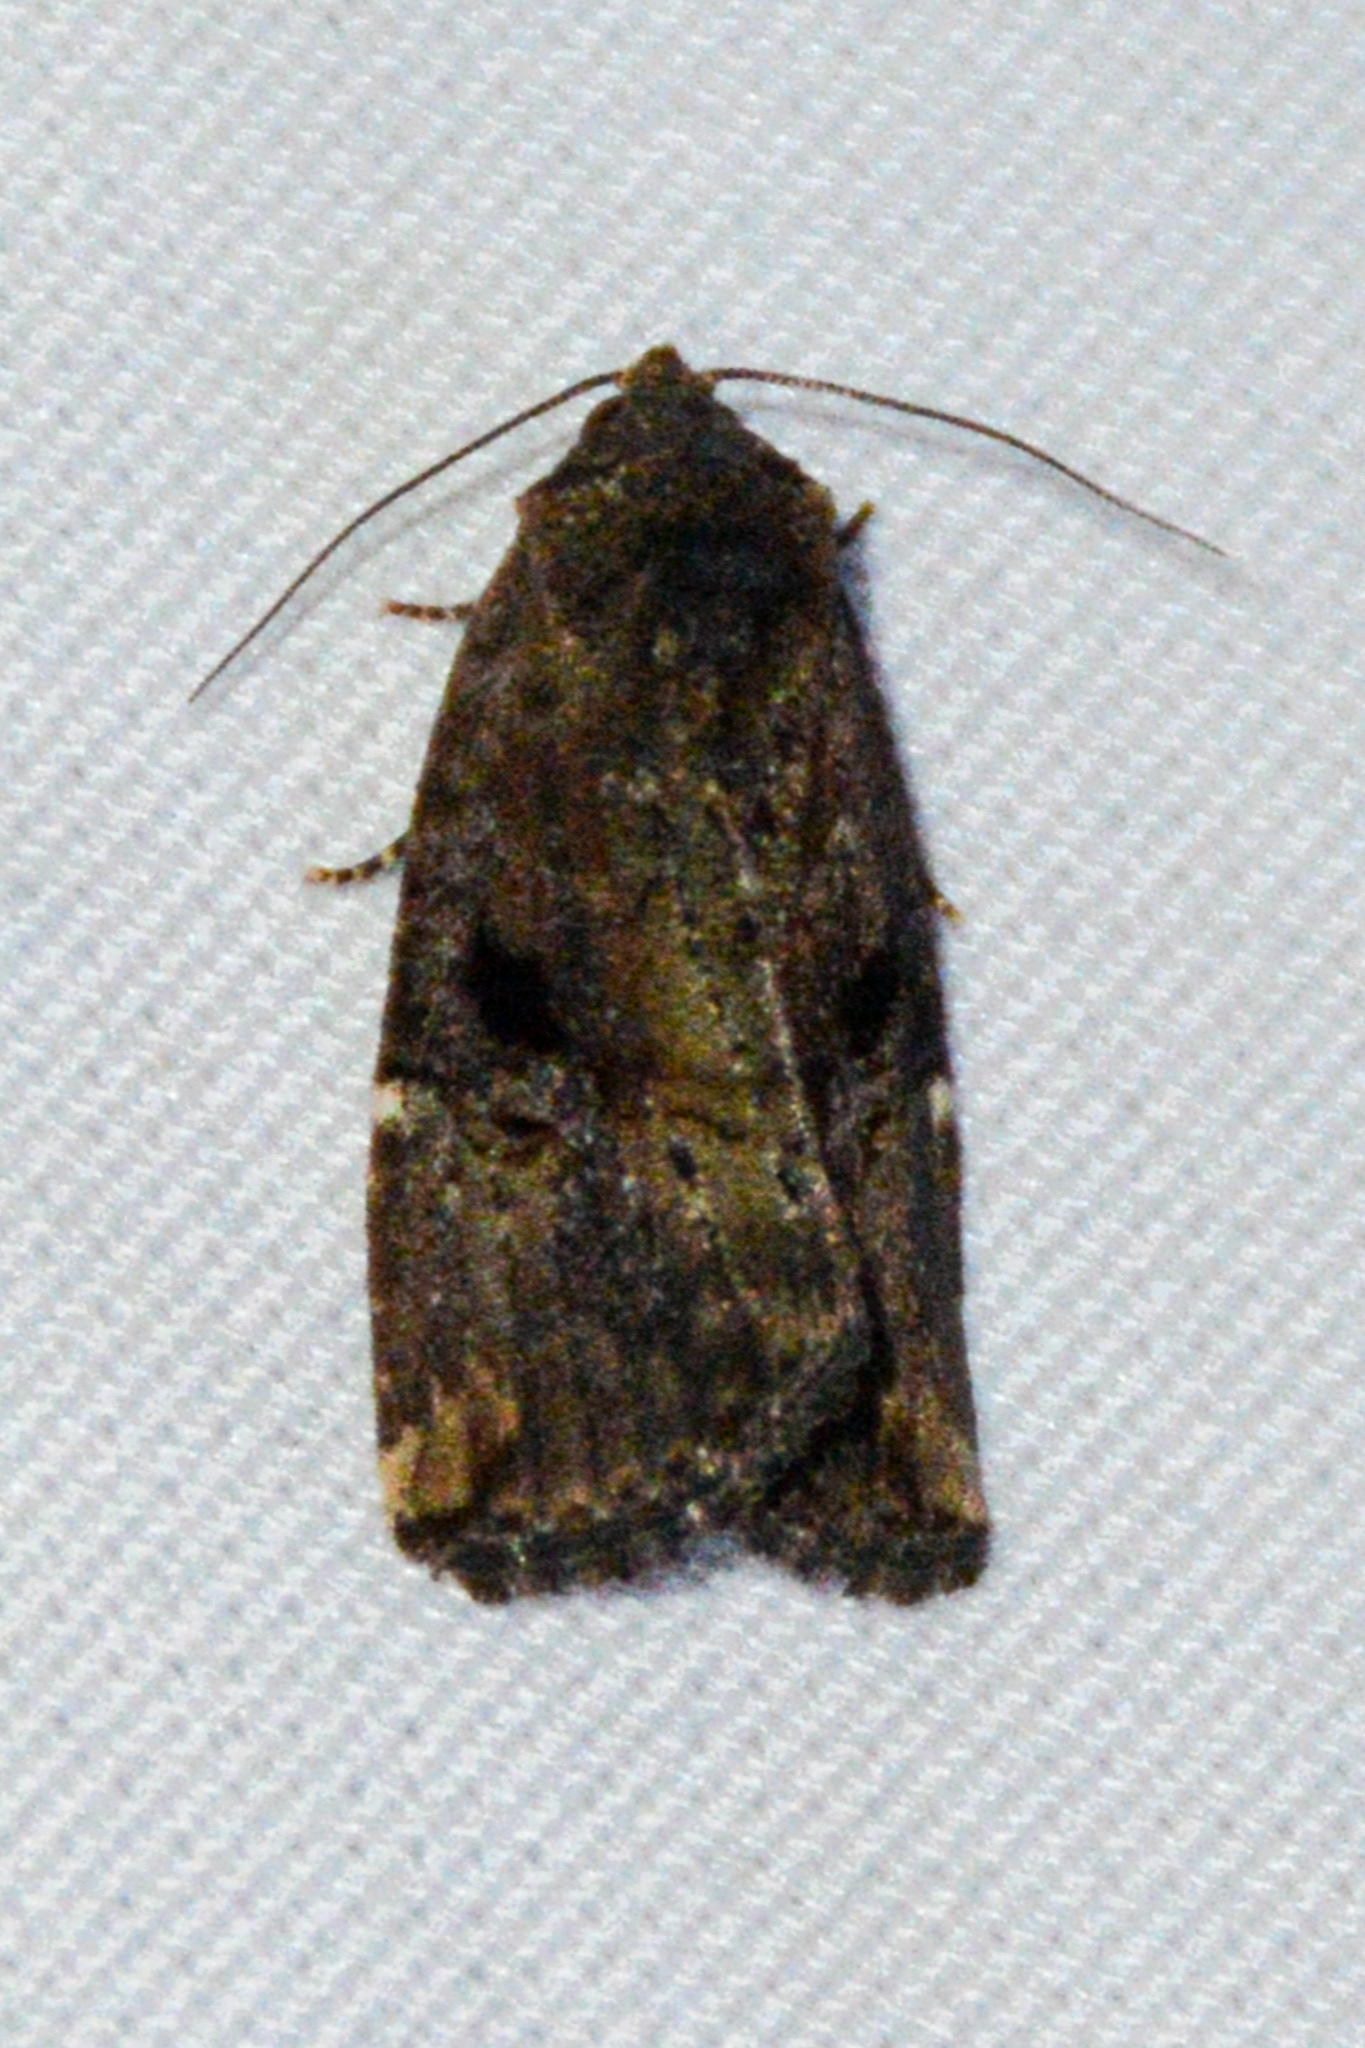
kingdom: Animalia
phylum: Arthropoda
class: Insecta
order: Lepidoptera
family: Noctuidae
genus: Elaphria
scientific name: Elaphria versicolor
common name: Fir harlequin
